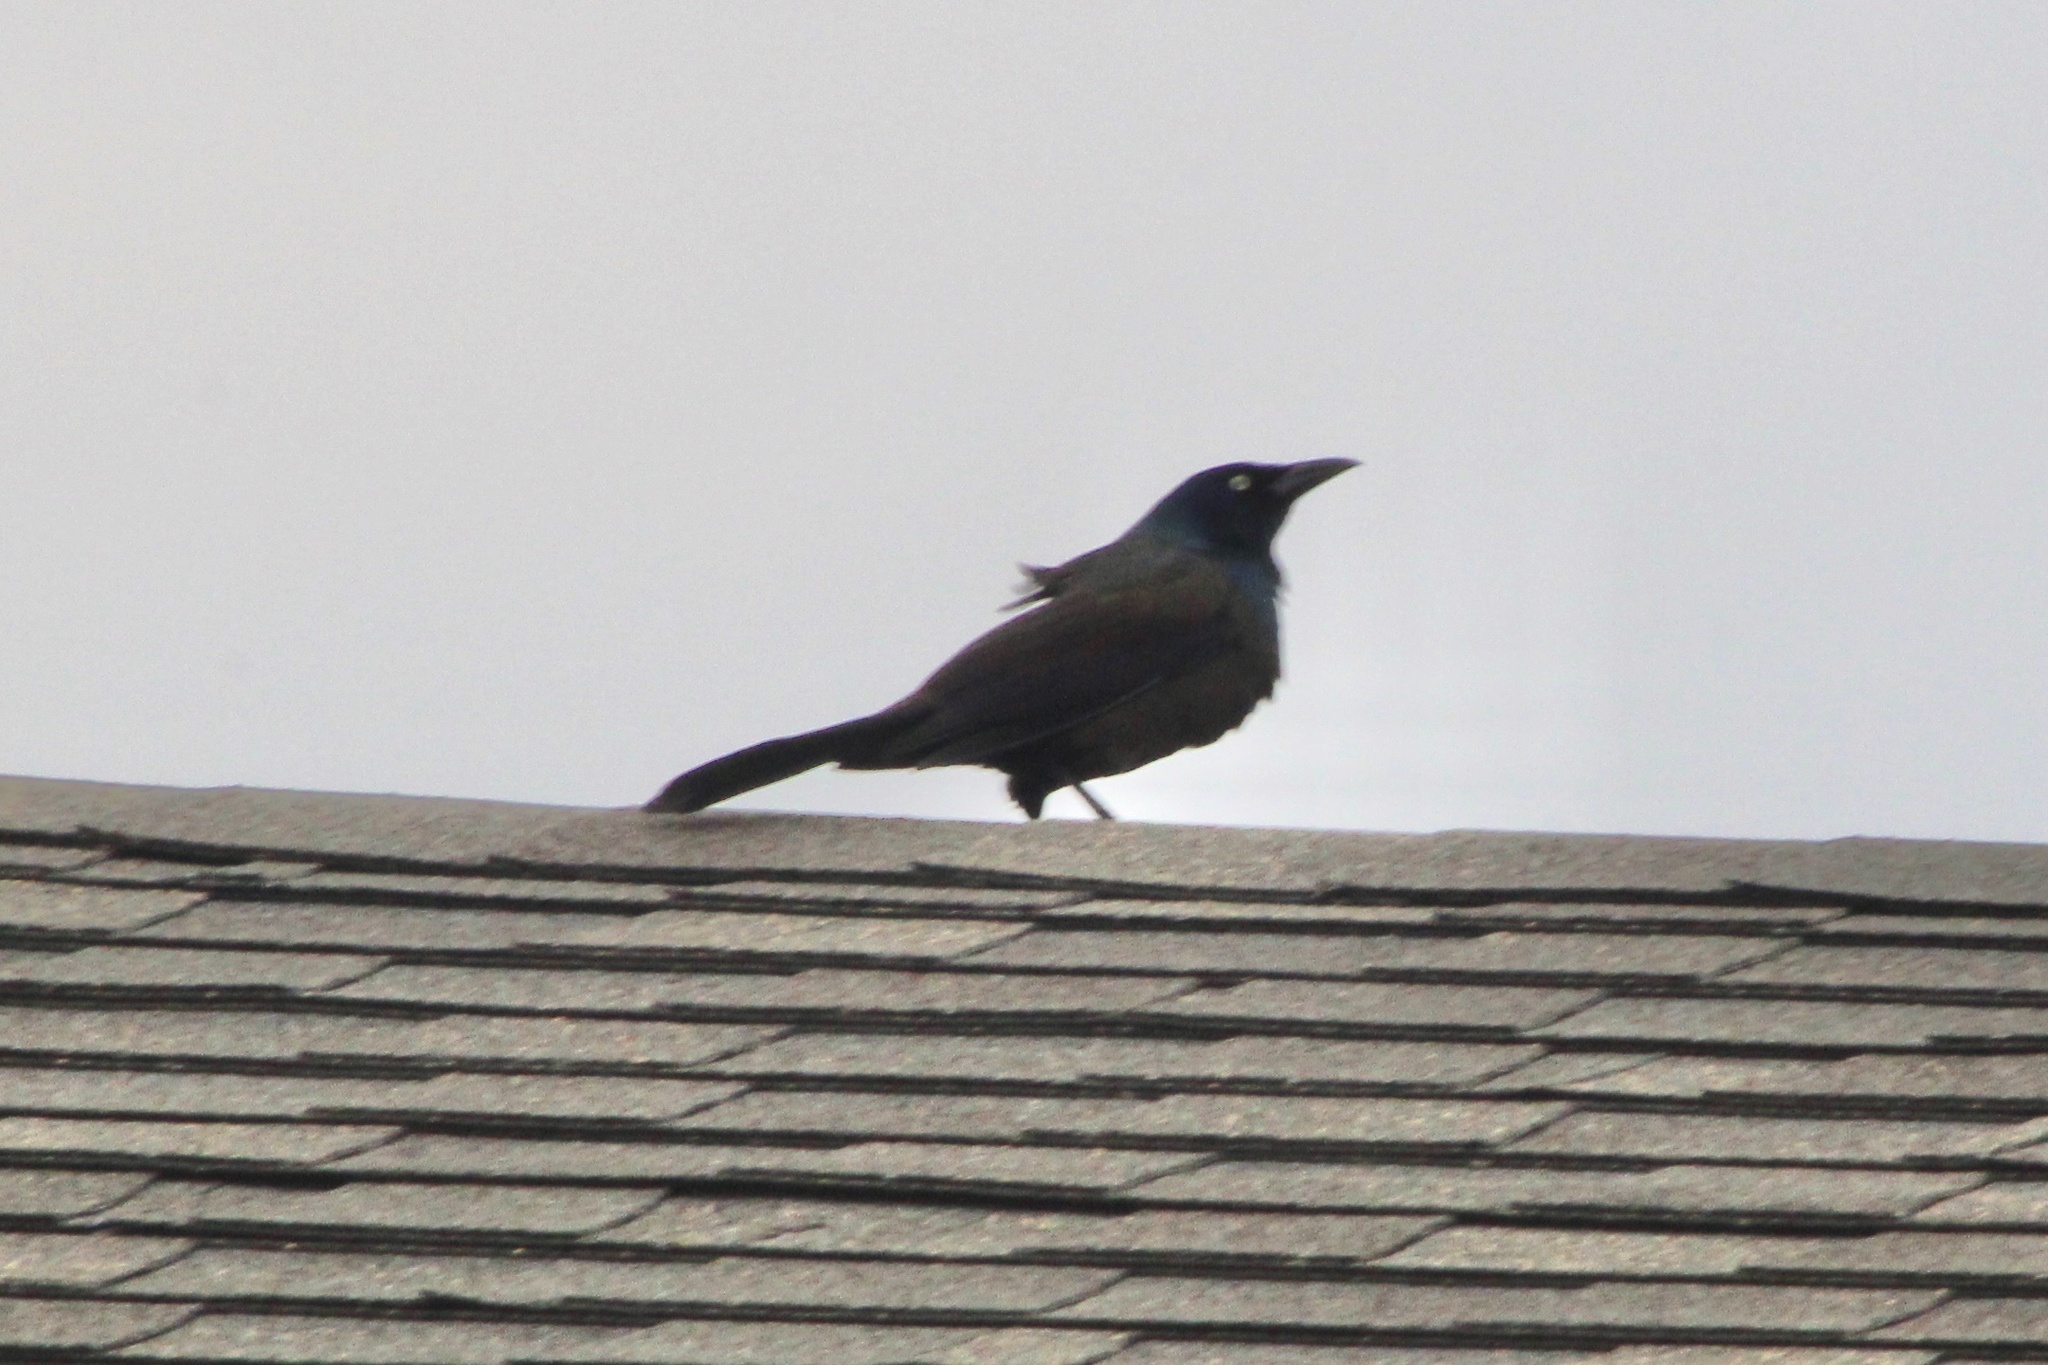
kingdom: Animalia
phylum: Chordata
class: Aves
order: Passeriformes
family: Icteridae
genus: Quiscalus
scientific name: Quiscalus quiscula
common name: Common grackle
